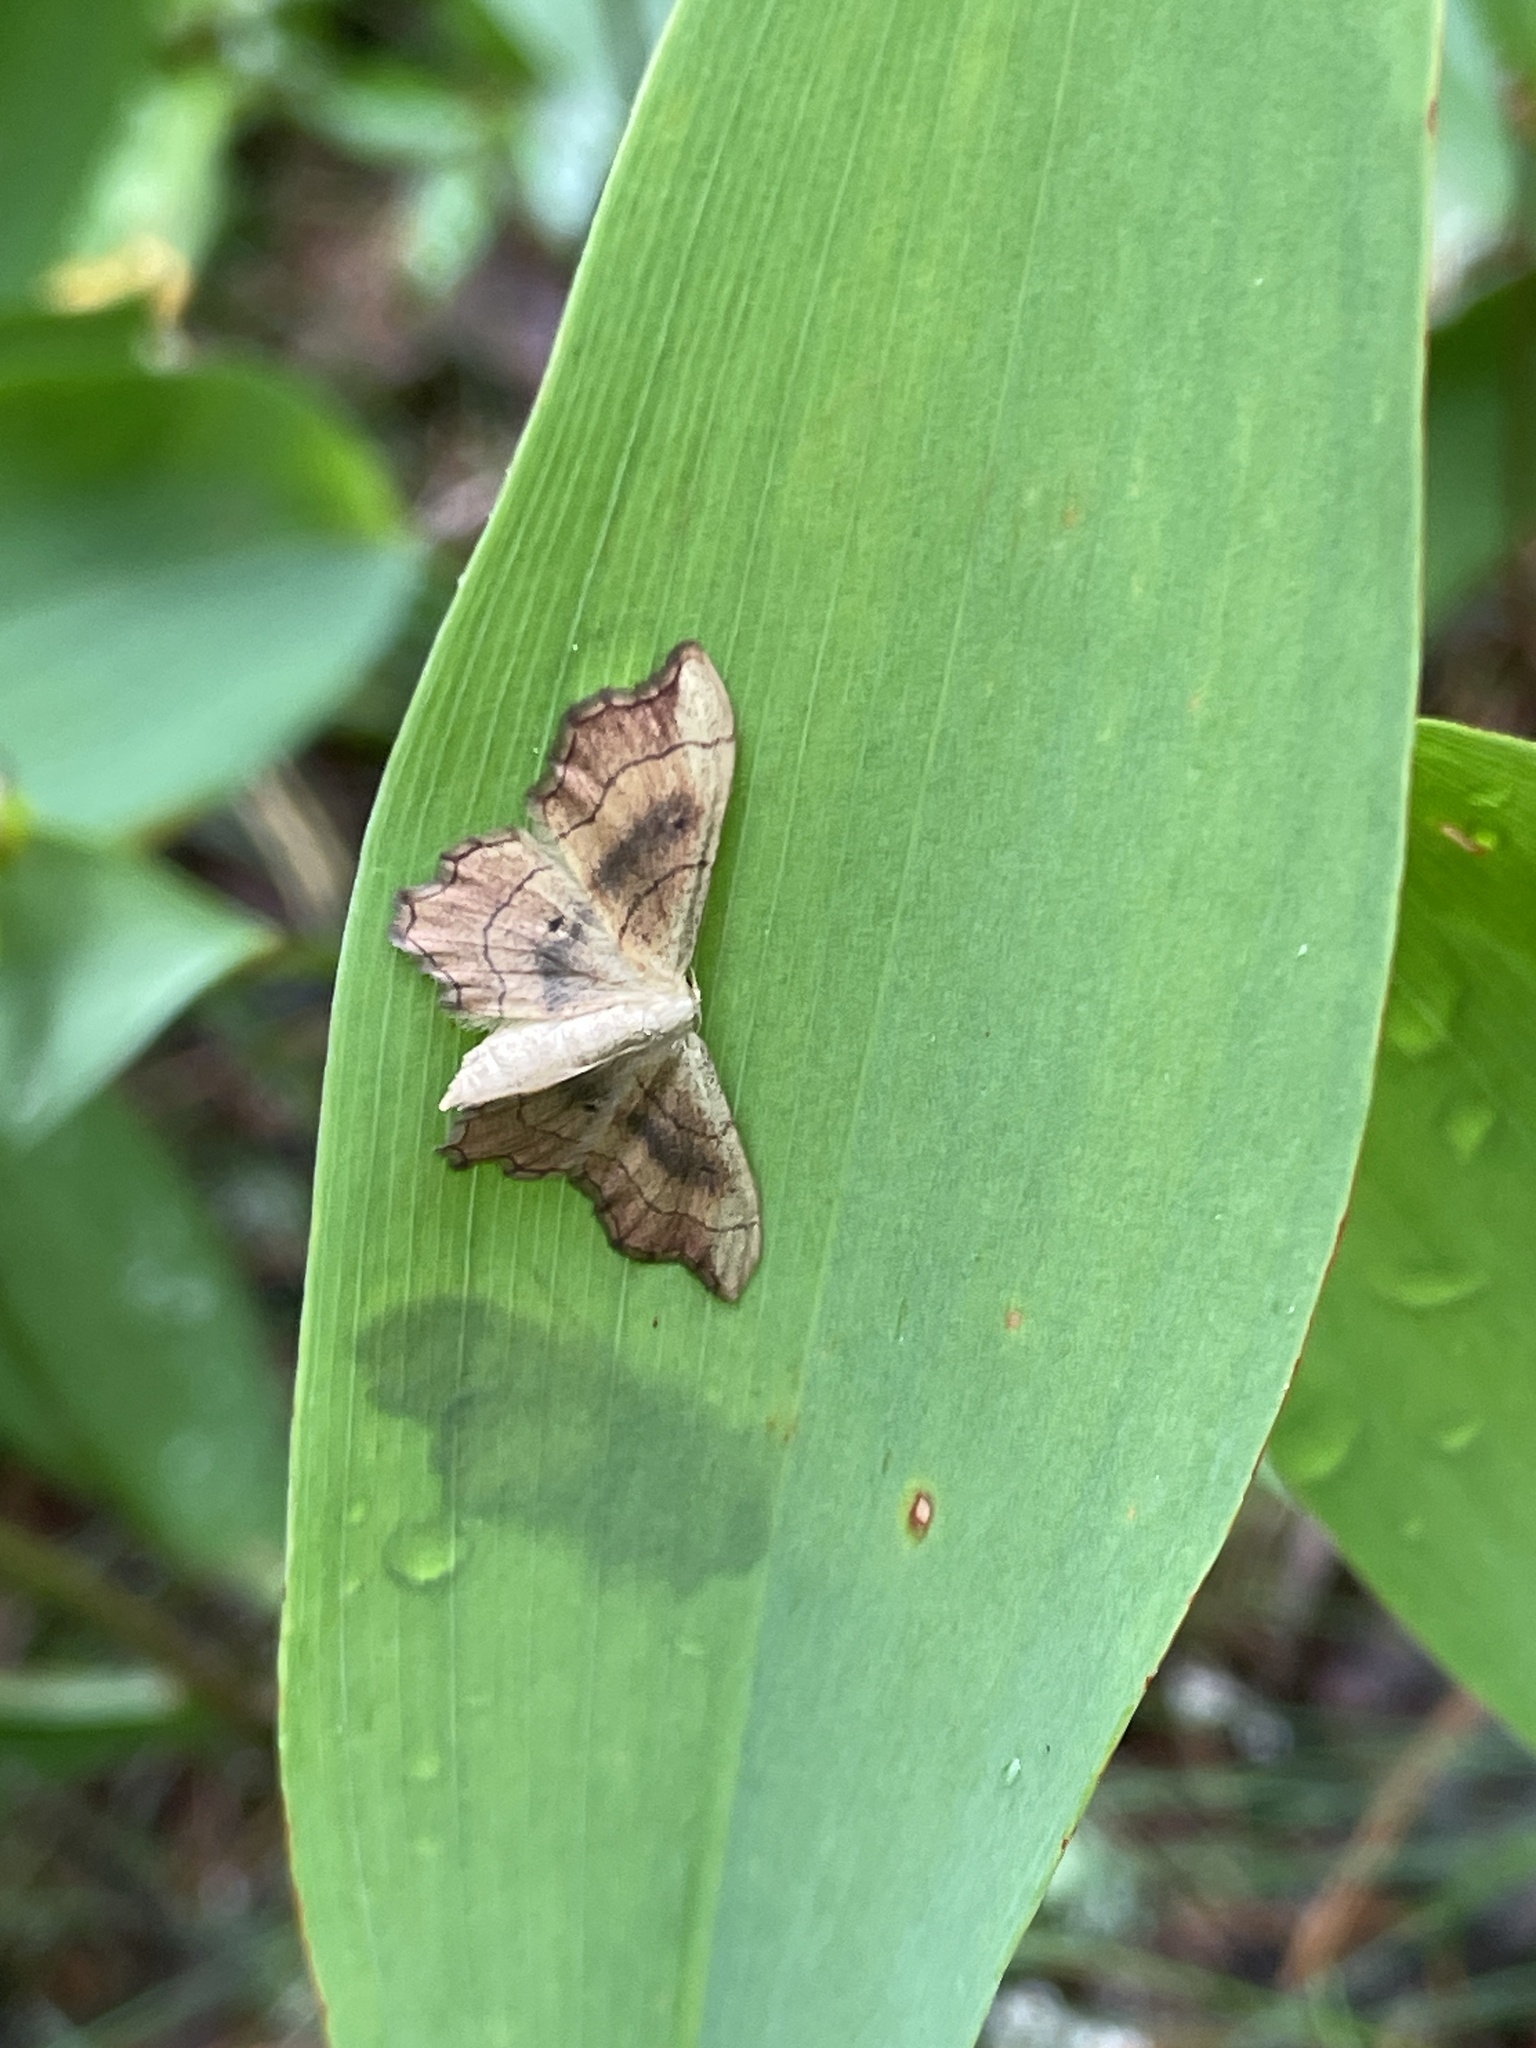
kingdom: Animalia
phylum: Arthropoda
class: Insecta
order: Lepidoptera
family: Geometridae
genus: Idaea
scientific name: Idaea emarginata
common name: Small scallop
